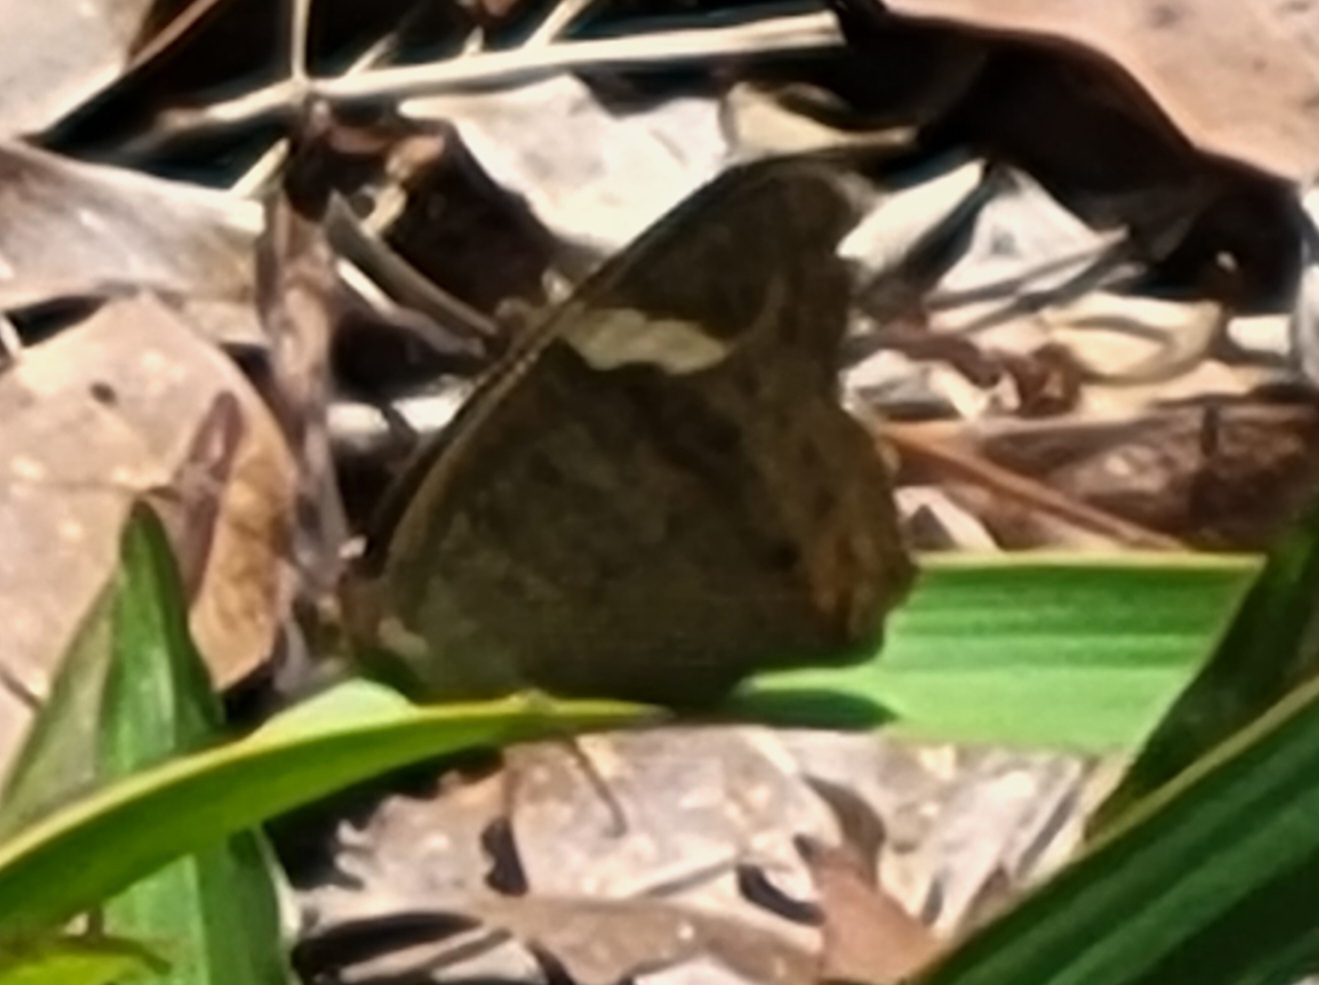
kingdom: Animalia
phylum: Arthropoda
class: Insecta
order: Lepidoptera
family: Nymphalidae
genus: Junonia
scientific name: Junonia coenia
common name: Common buckeye
